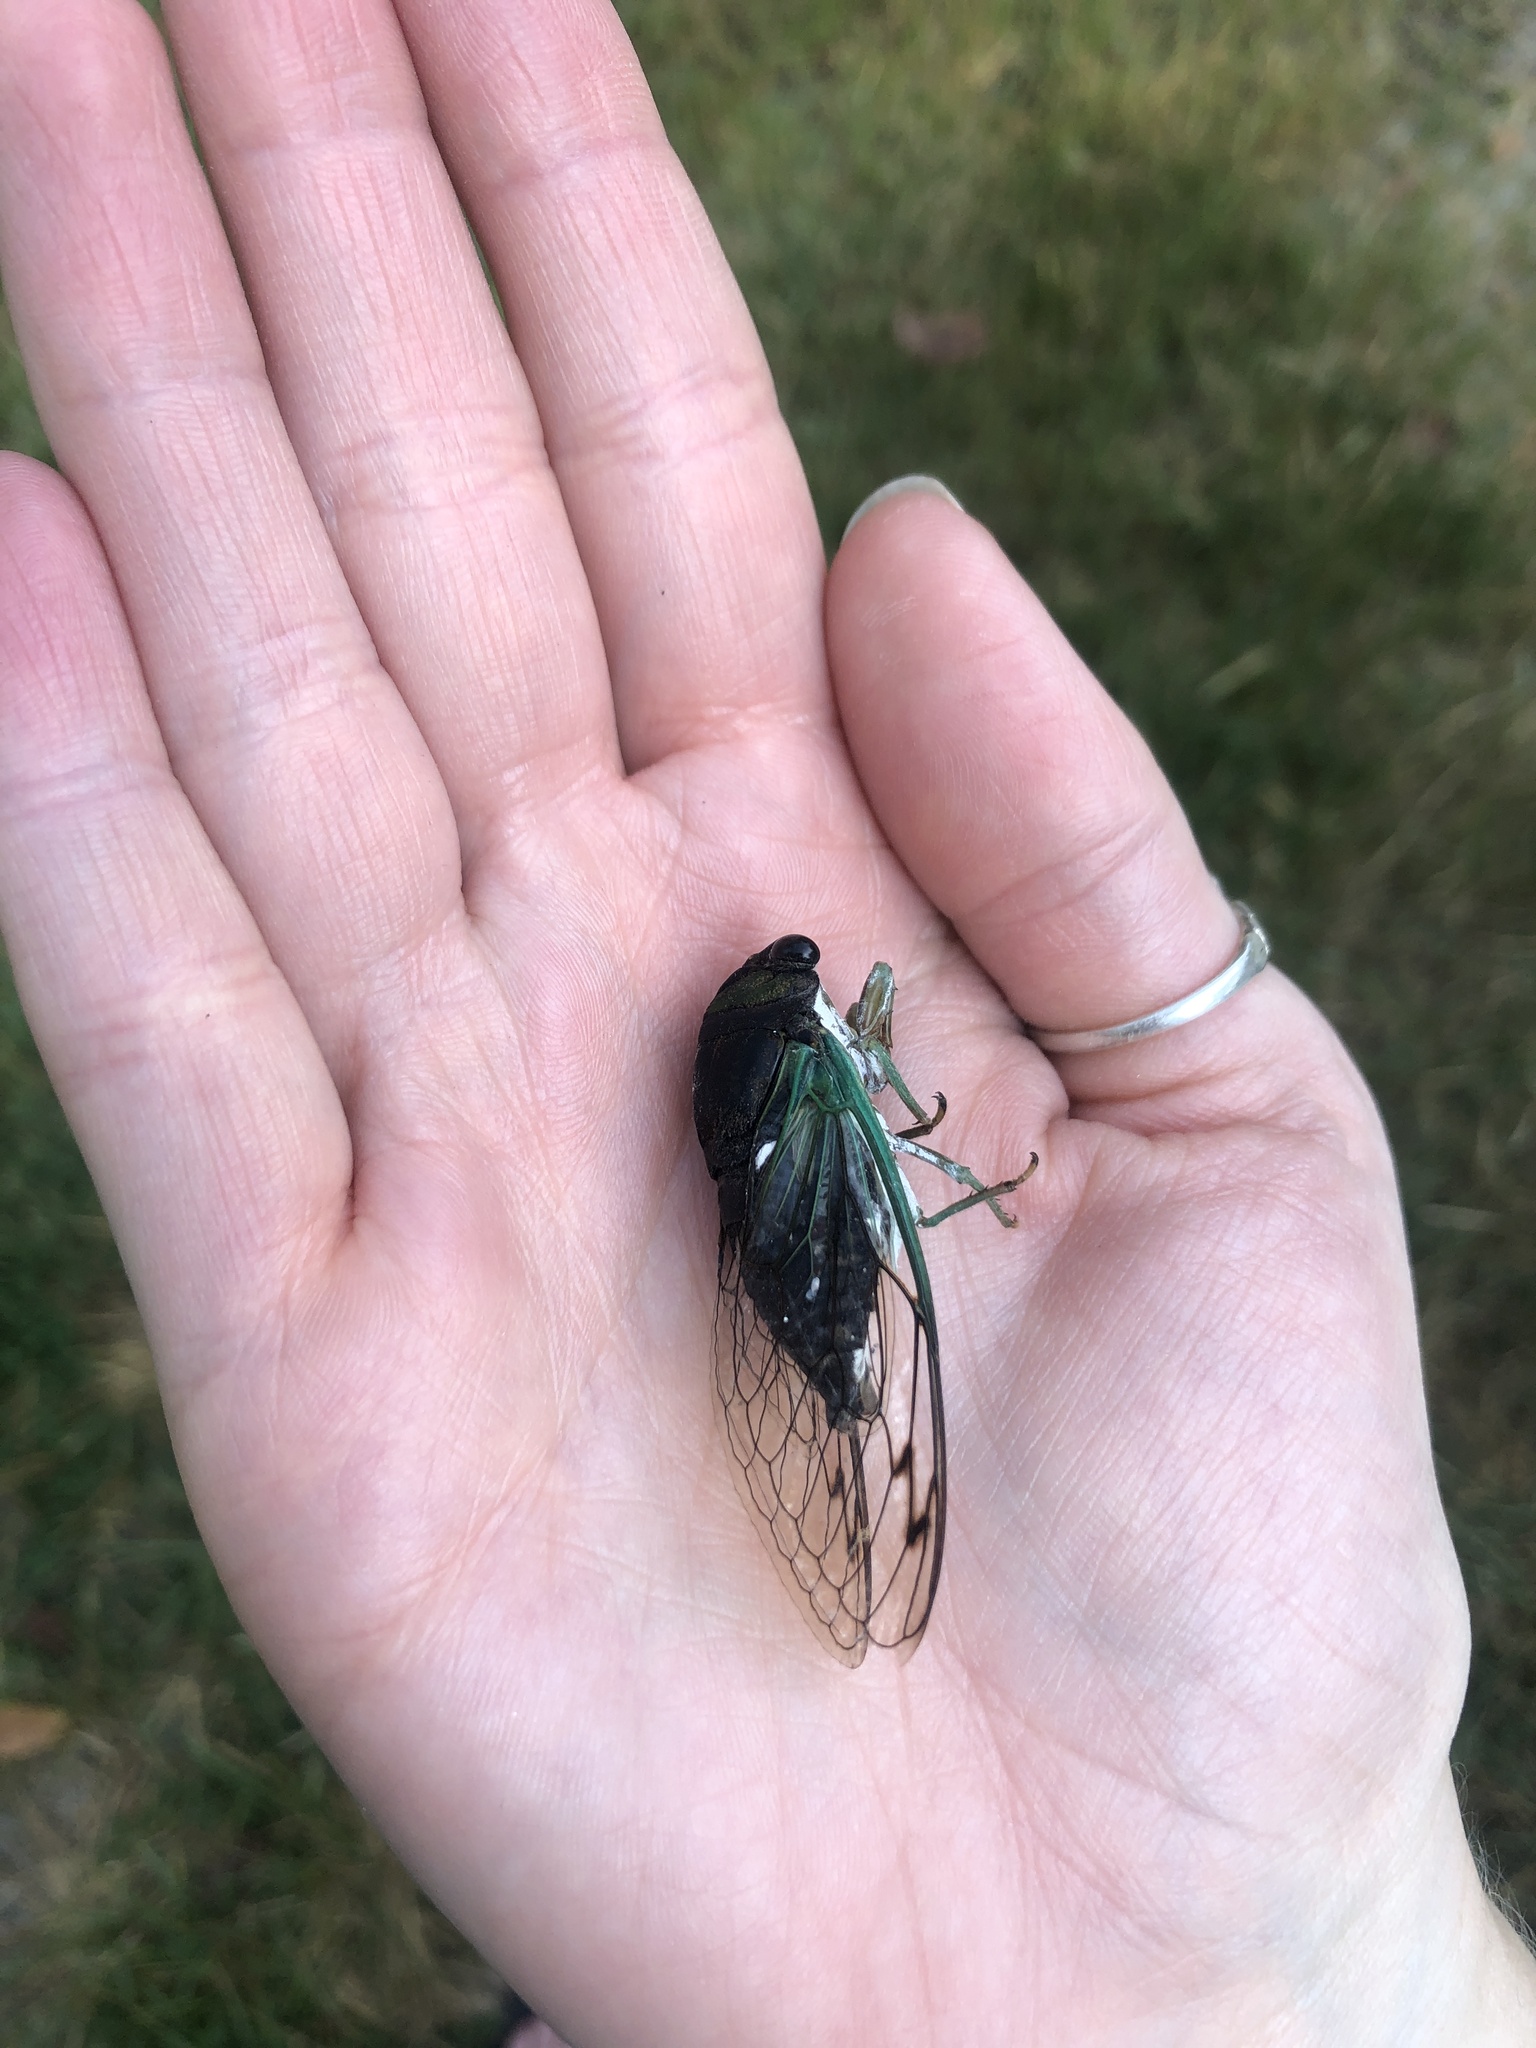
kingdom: Animalia
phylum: Arthropoda
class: Insecta
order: Hemiptera
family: Cicadidae
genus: Neotibicen
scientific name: Neotibicen tibicen
